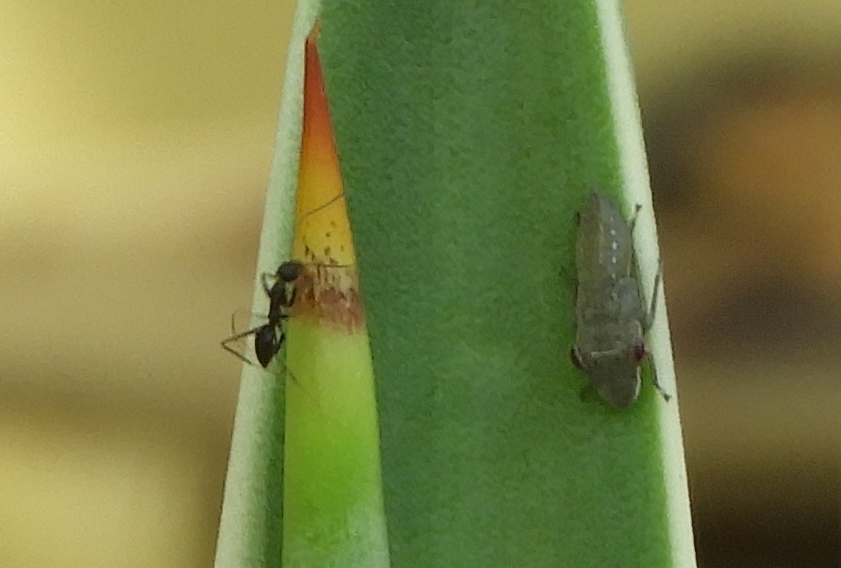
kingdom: Animalia
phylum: Arthropoda
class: Insecta
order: Hymenoptera
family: Formicidae
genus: Paratrechina
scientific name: Paratrechina longicornis
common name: Longhorned crazy ant
